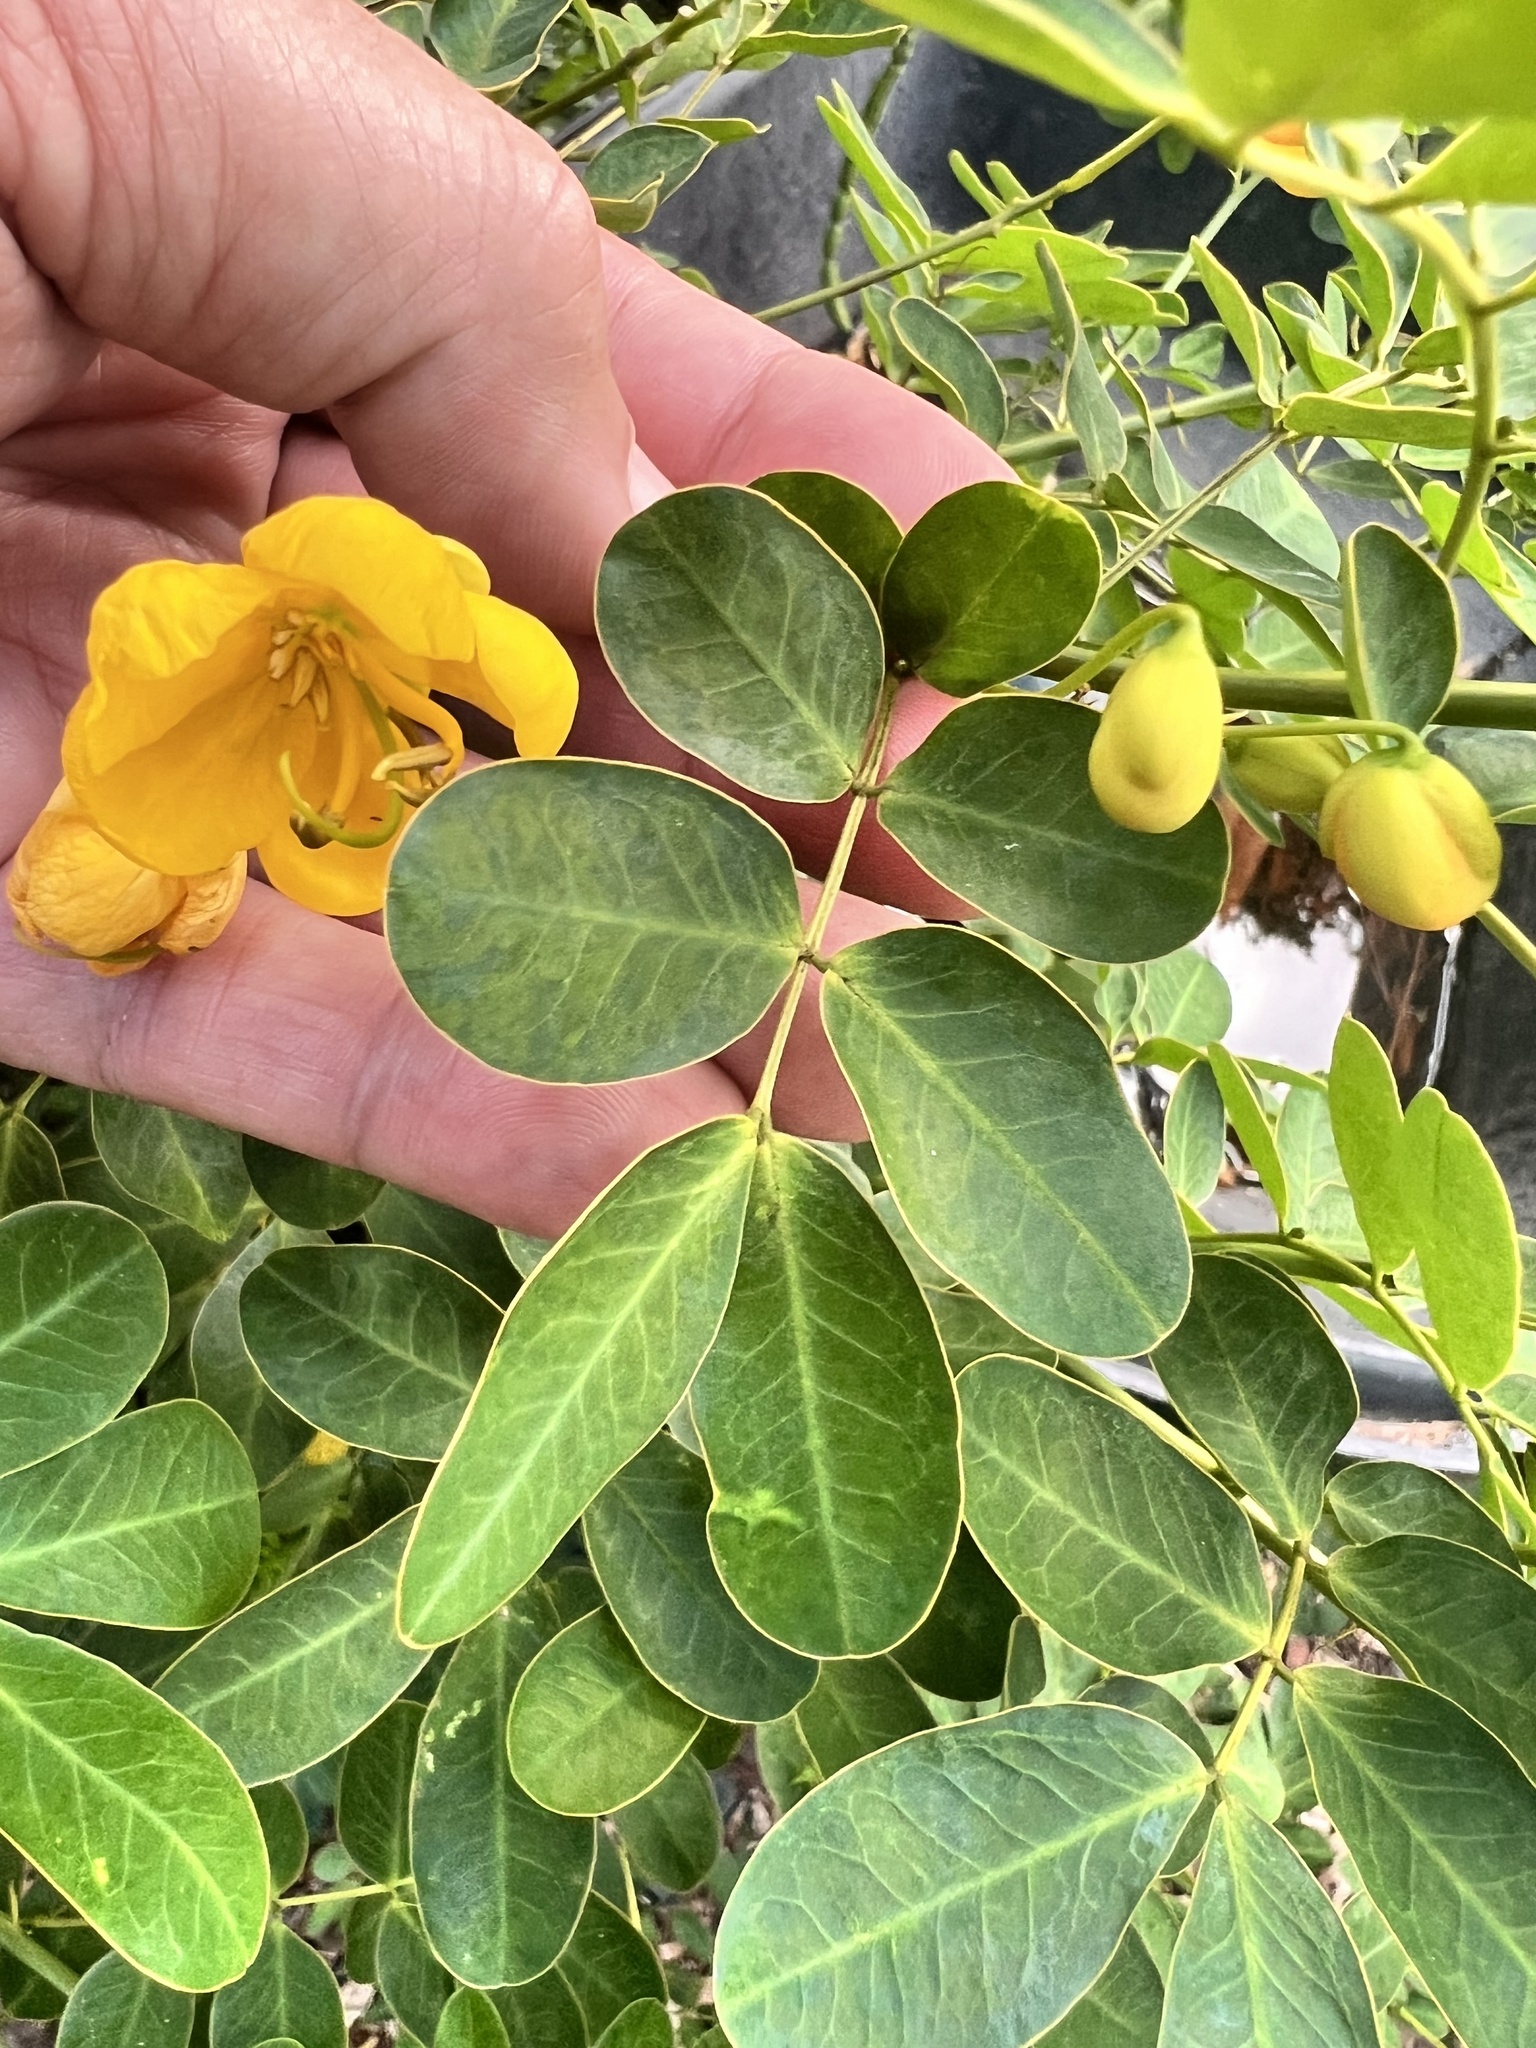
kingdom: Plantae
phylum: Tracheophyta
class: Magnoliopsida
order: Fabales
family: Fabaceae
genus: Senna
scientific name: Senna pendula
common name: Easter cassia
